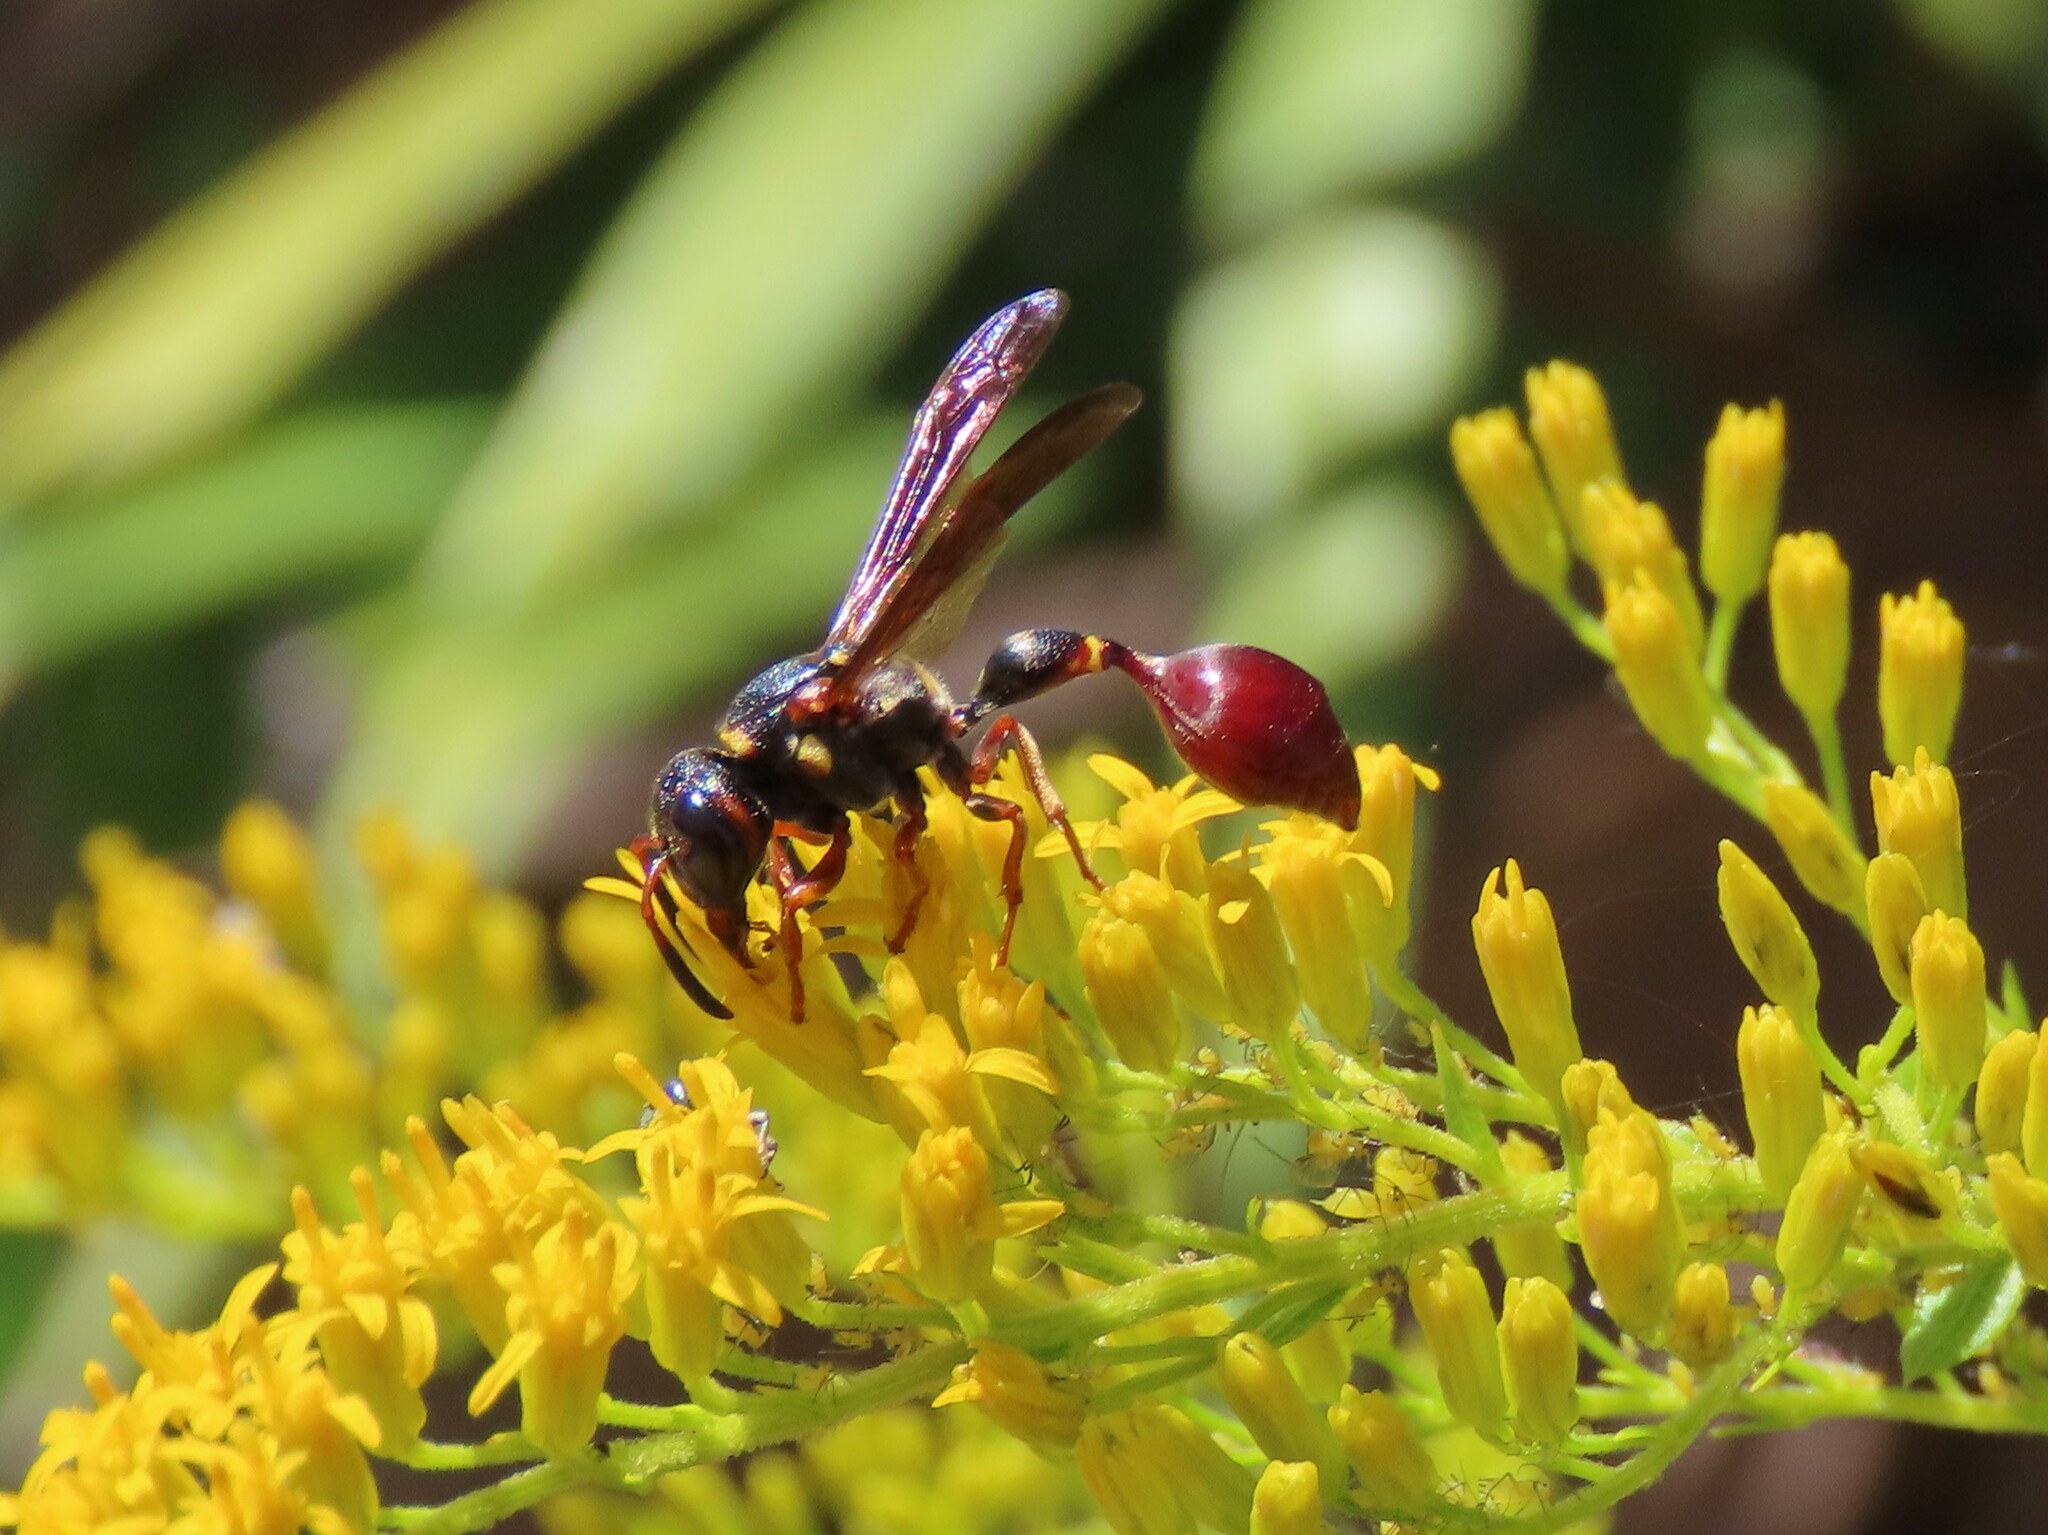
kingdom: Animalia
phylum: Arthropoda
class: Insecta
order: Hymenoptera
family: Eumenidae
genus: Zethus
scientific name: Zethus slossonae
